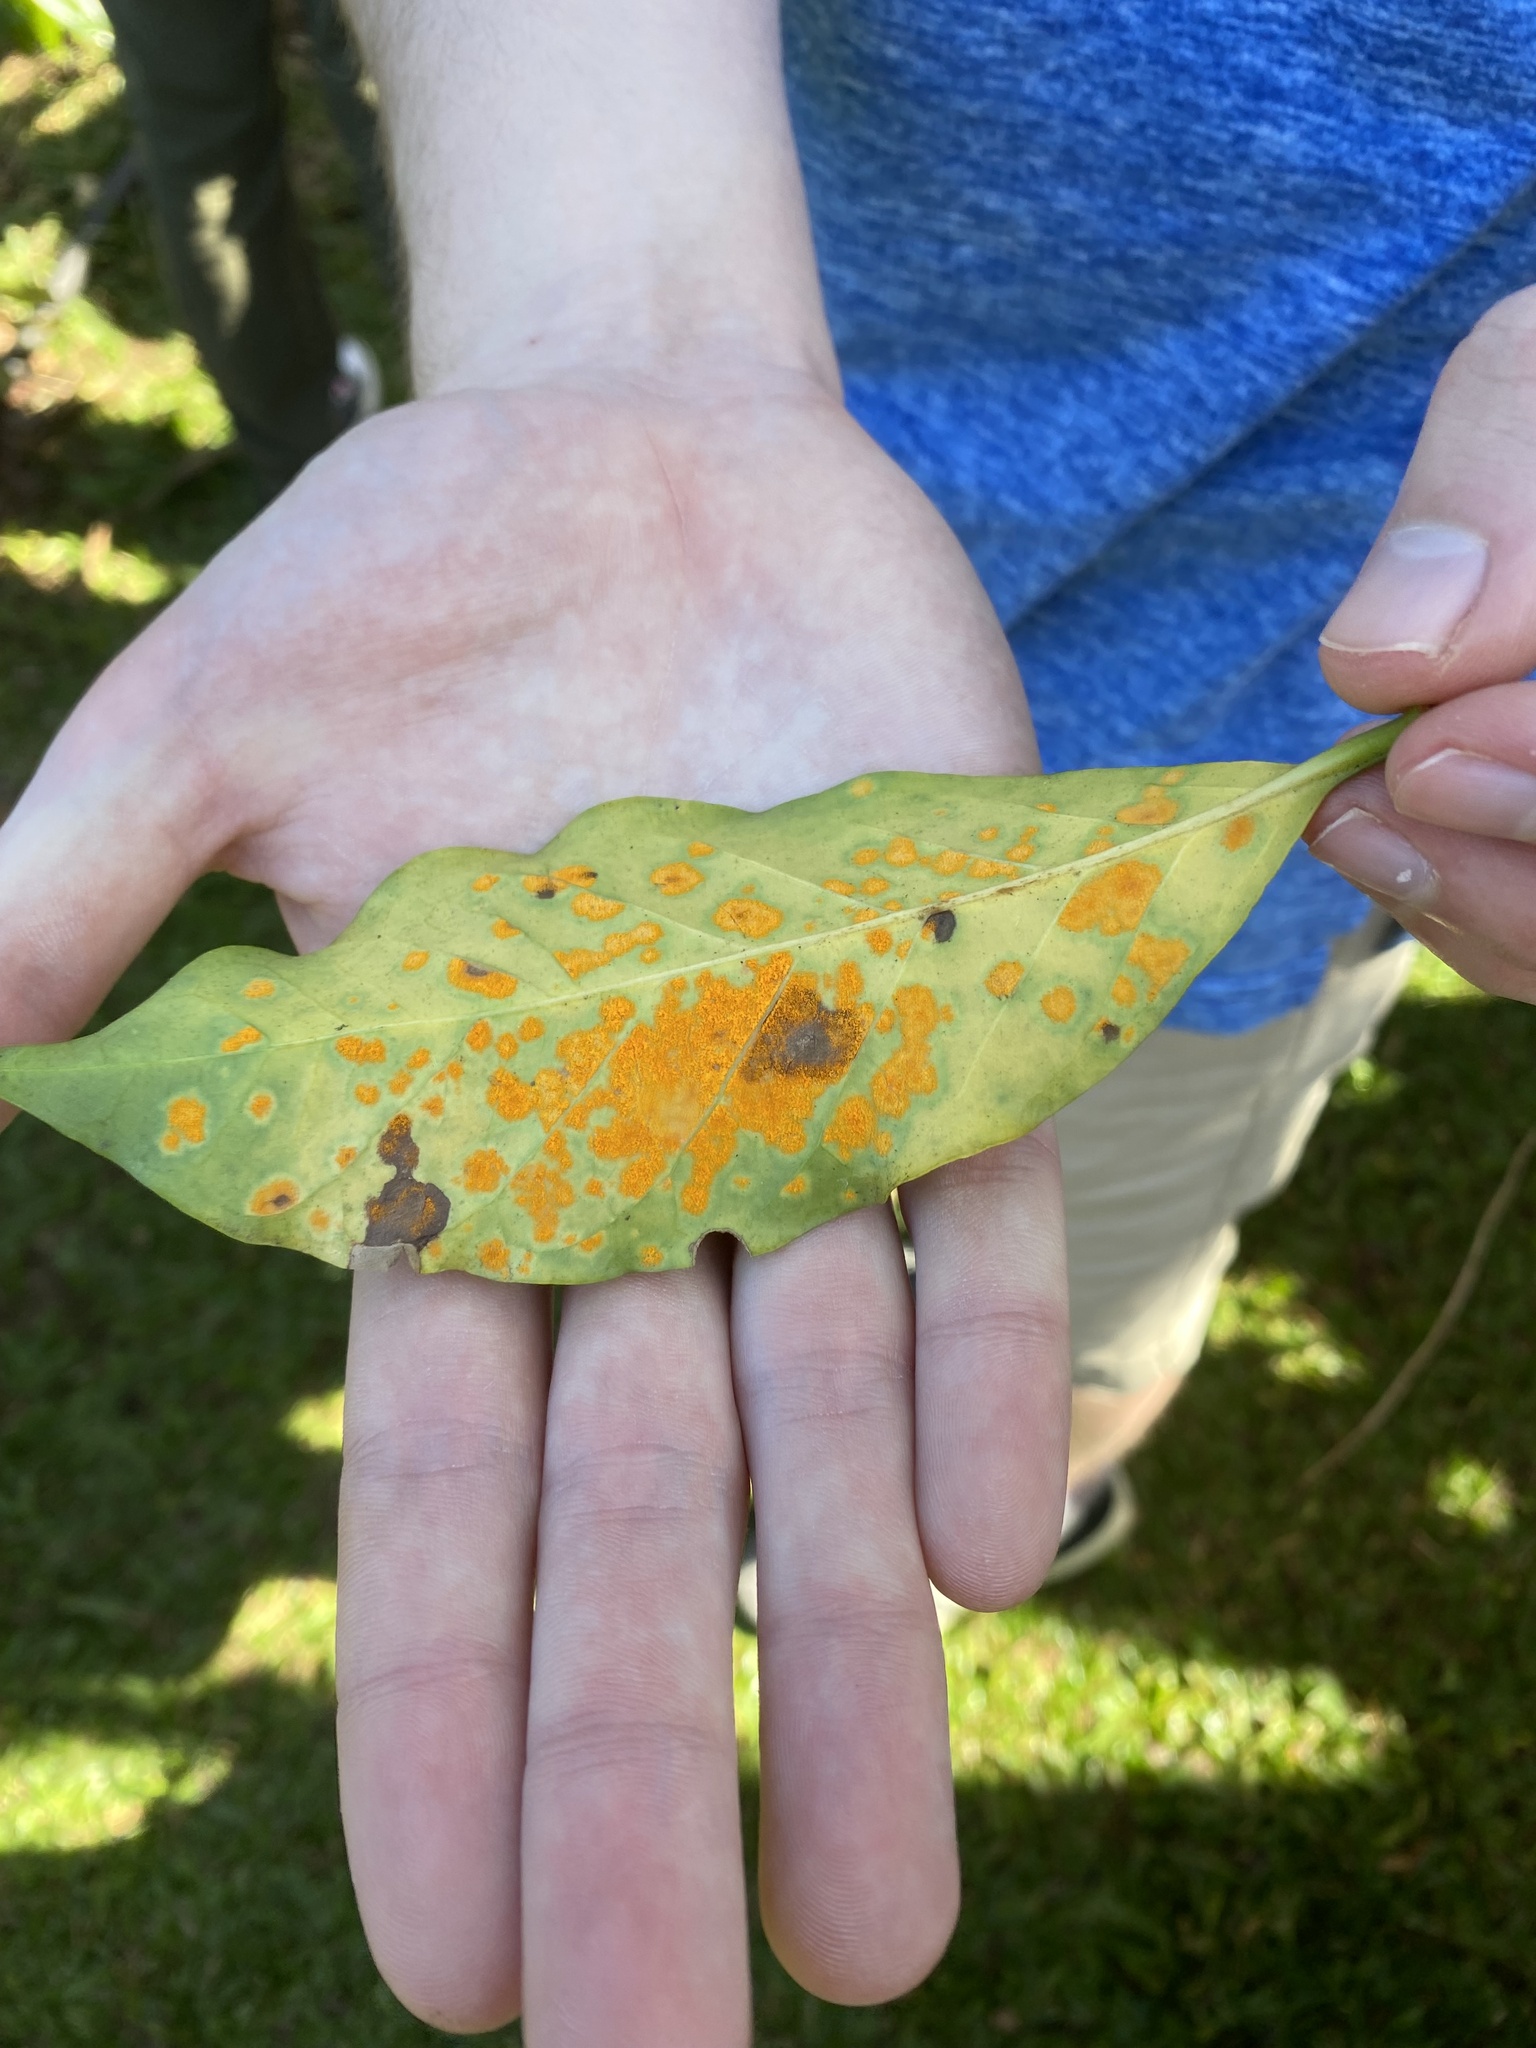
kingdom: Fungi
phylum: Basidiomycota
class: Pucciniomycetes
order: Pucciniales
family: Zaghouaniaceae
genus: Hemileia
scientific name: Hemileia vastatrix
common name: Leaf rust of coffee
